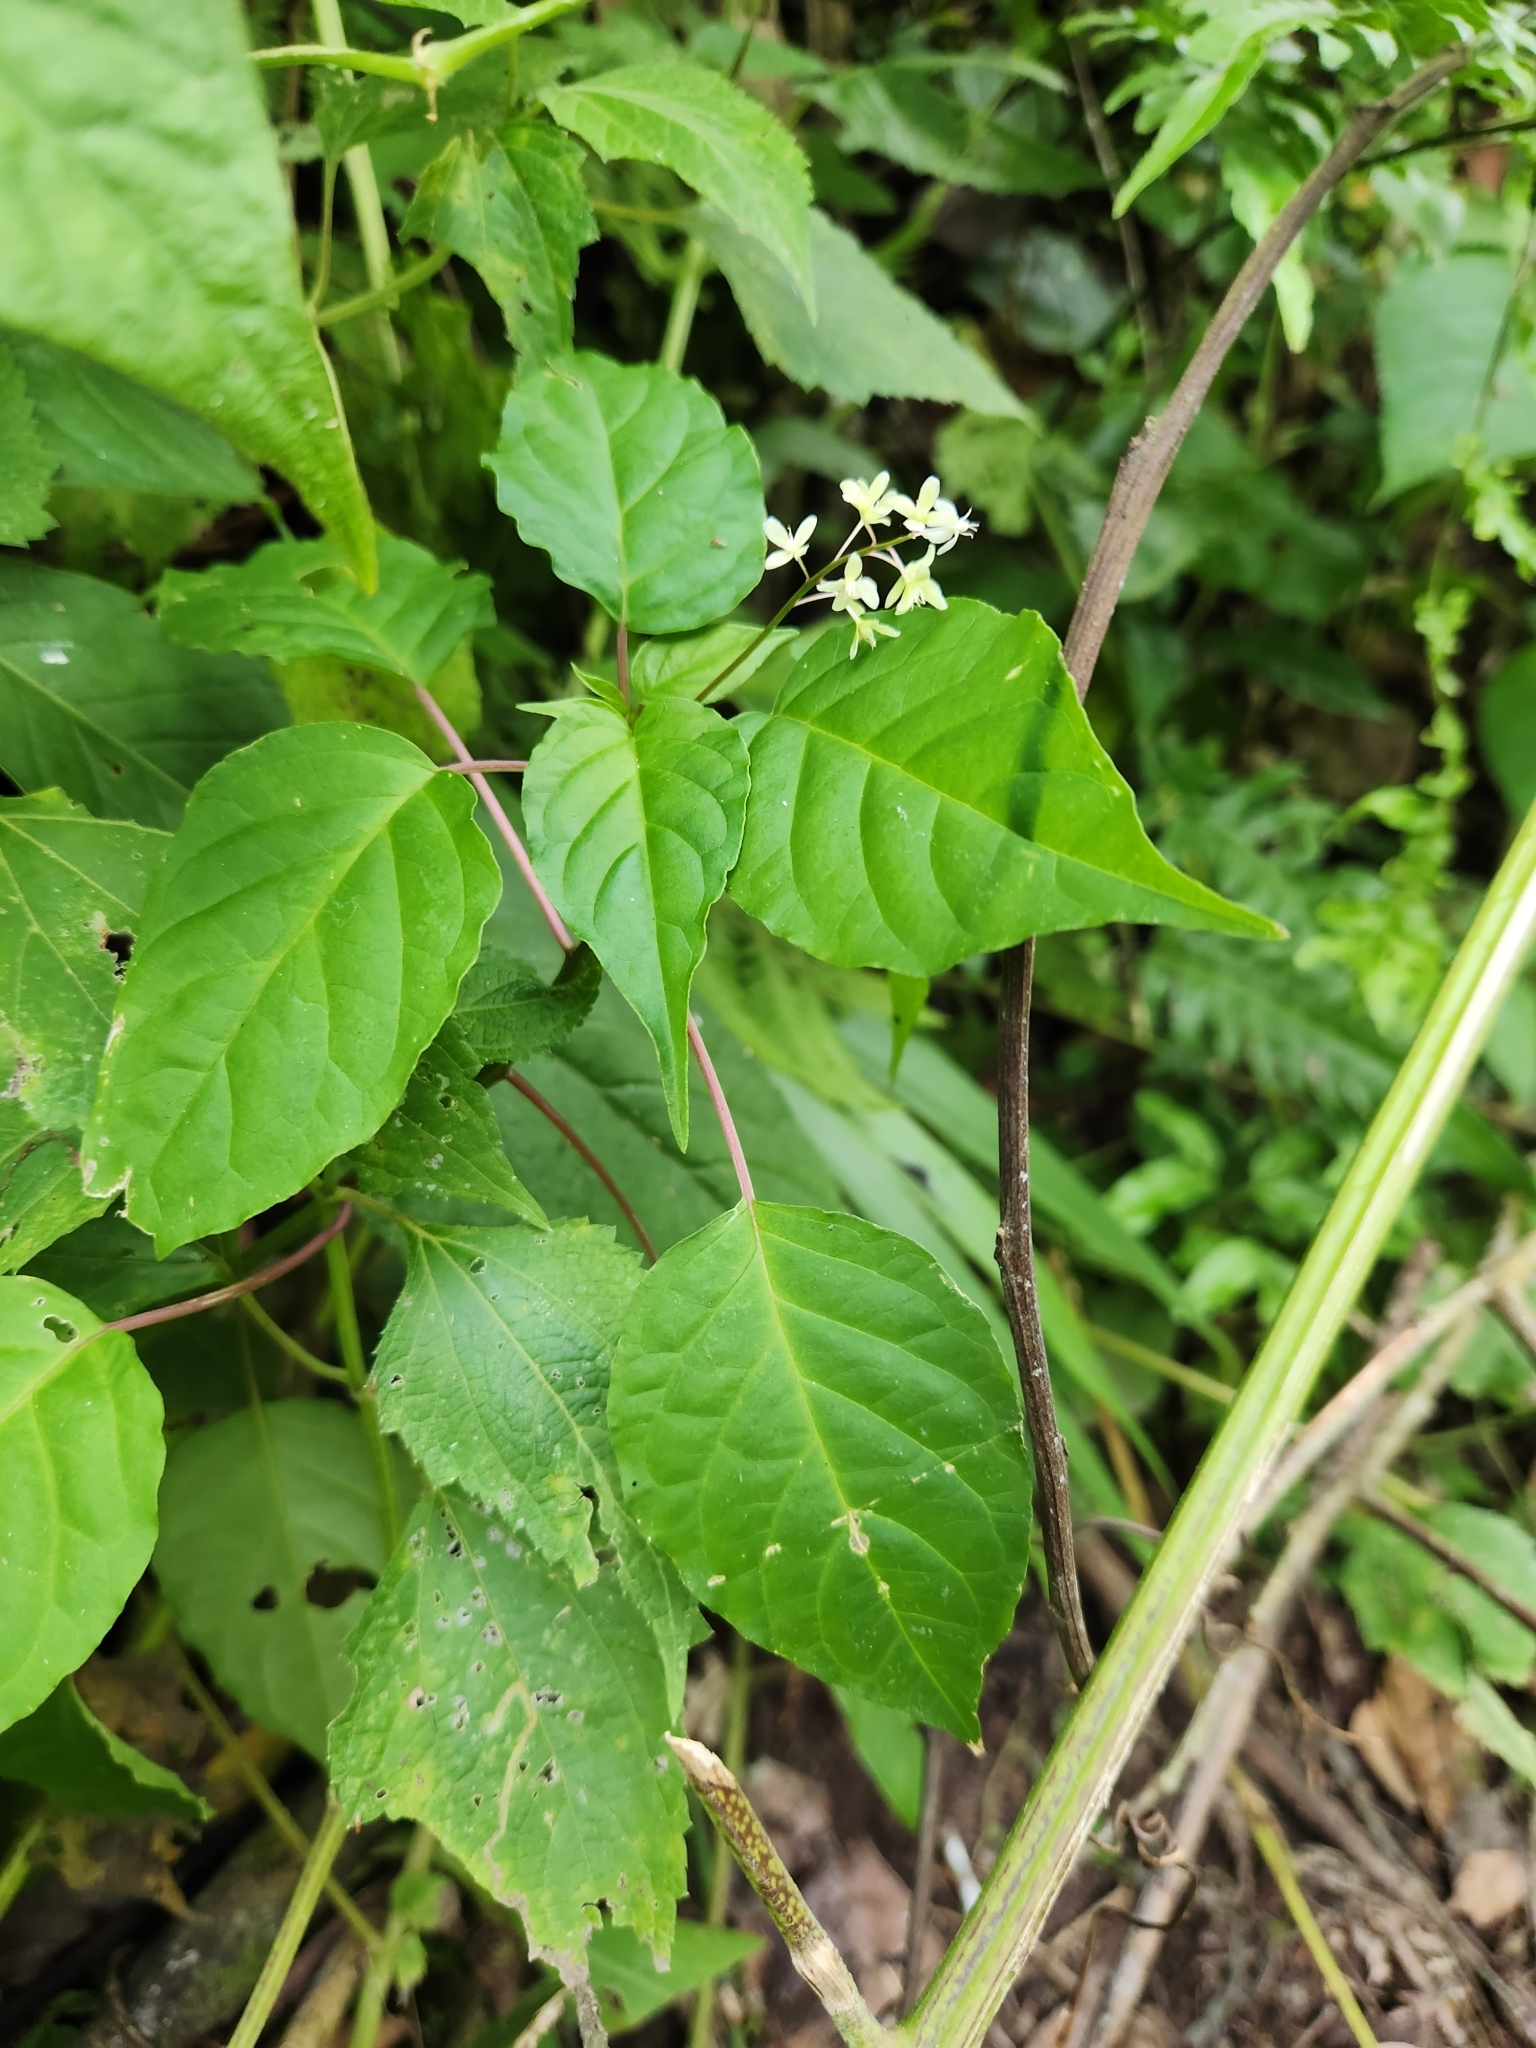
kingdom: Plantae
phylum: Tracheophyta
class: Magnoliopsida
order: Caryophyllales
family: Phytolaccaceae
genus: Rivina
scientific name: Rivina humilis
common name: Rougeplant
